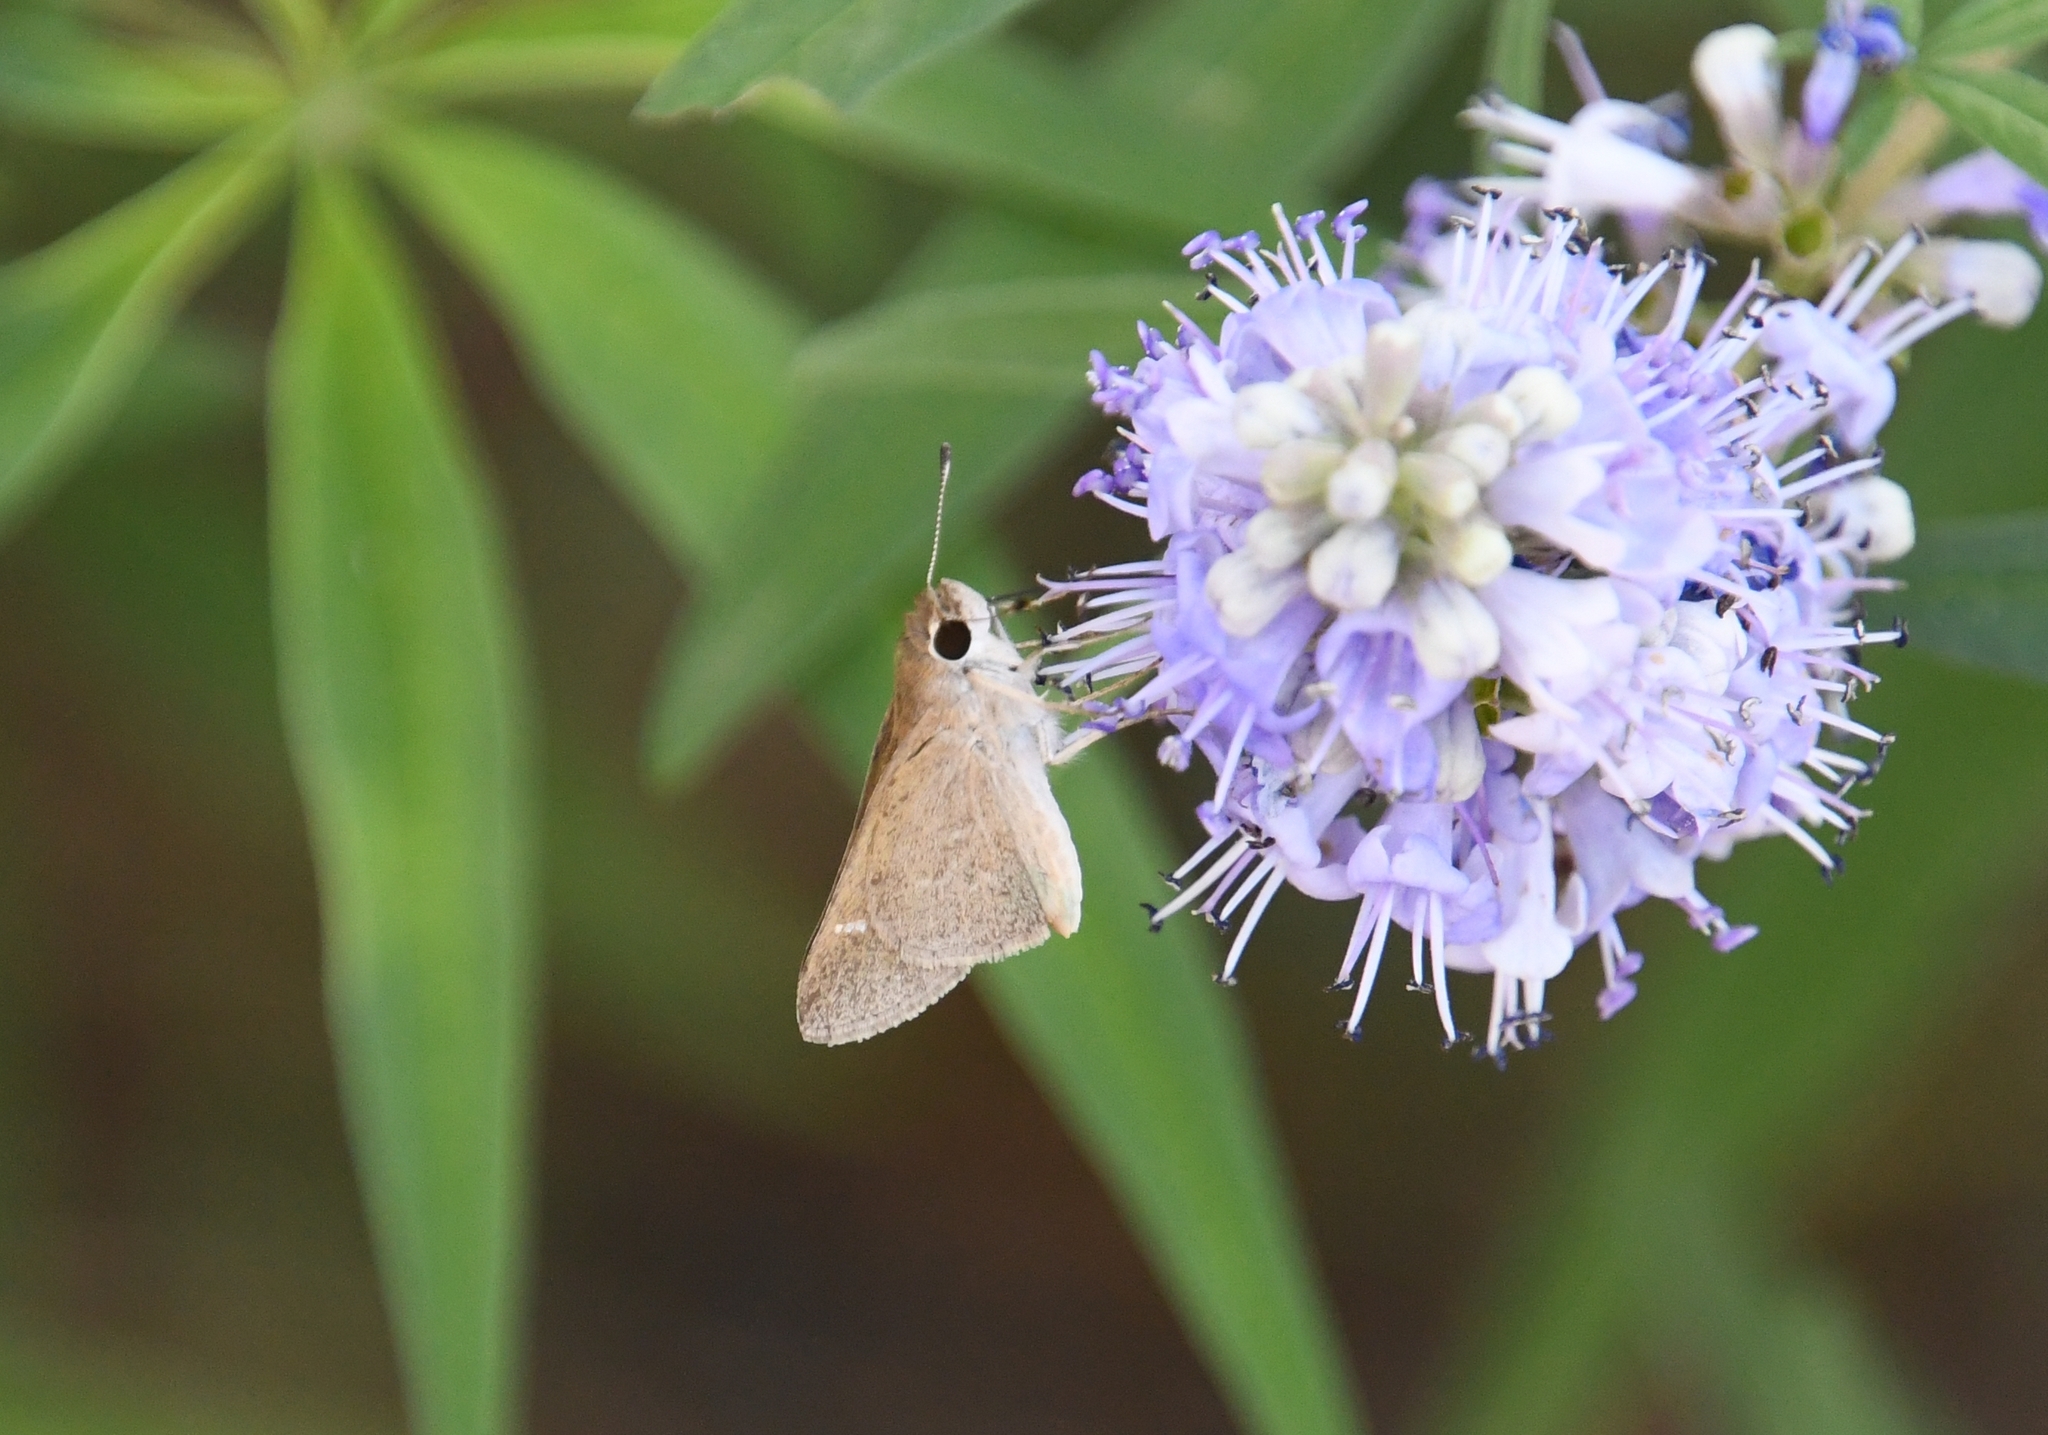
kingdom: Animalia
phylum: Arthropoda
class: Insecta
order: Lepidoptera
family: Hesperiidae
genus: Lerodea
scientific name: Lerodea eufala
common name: Eufala skipper
